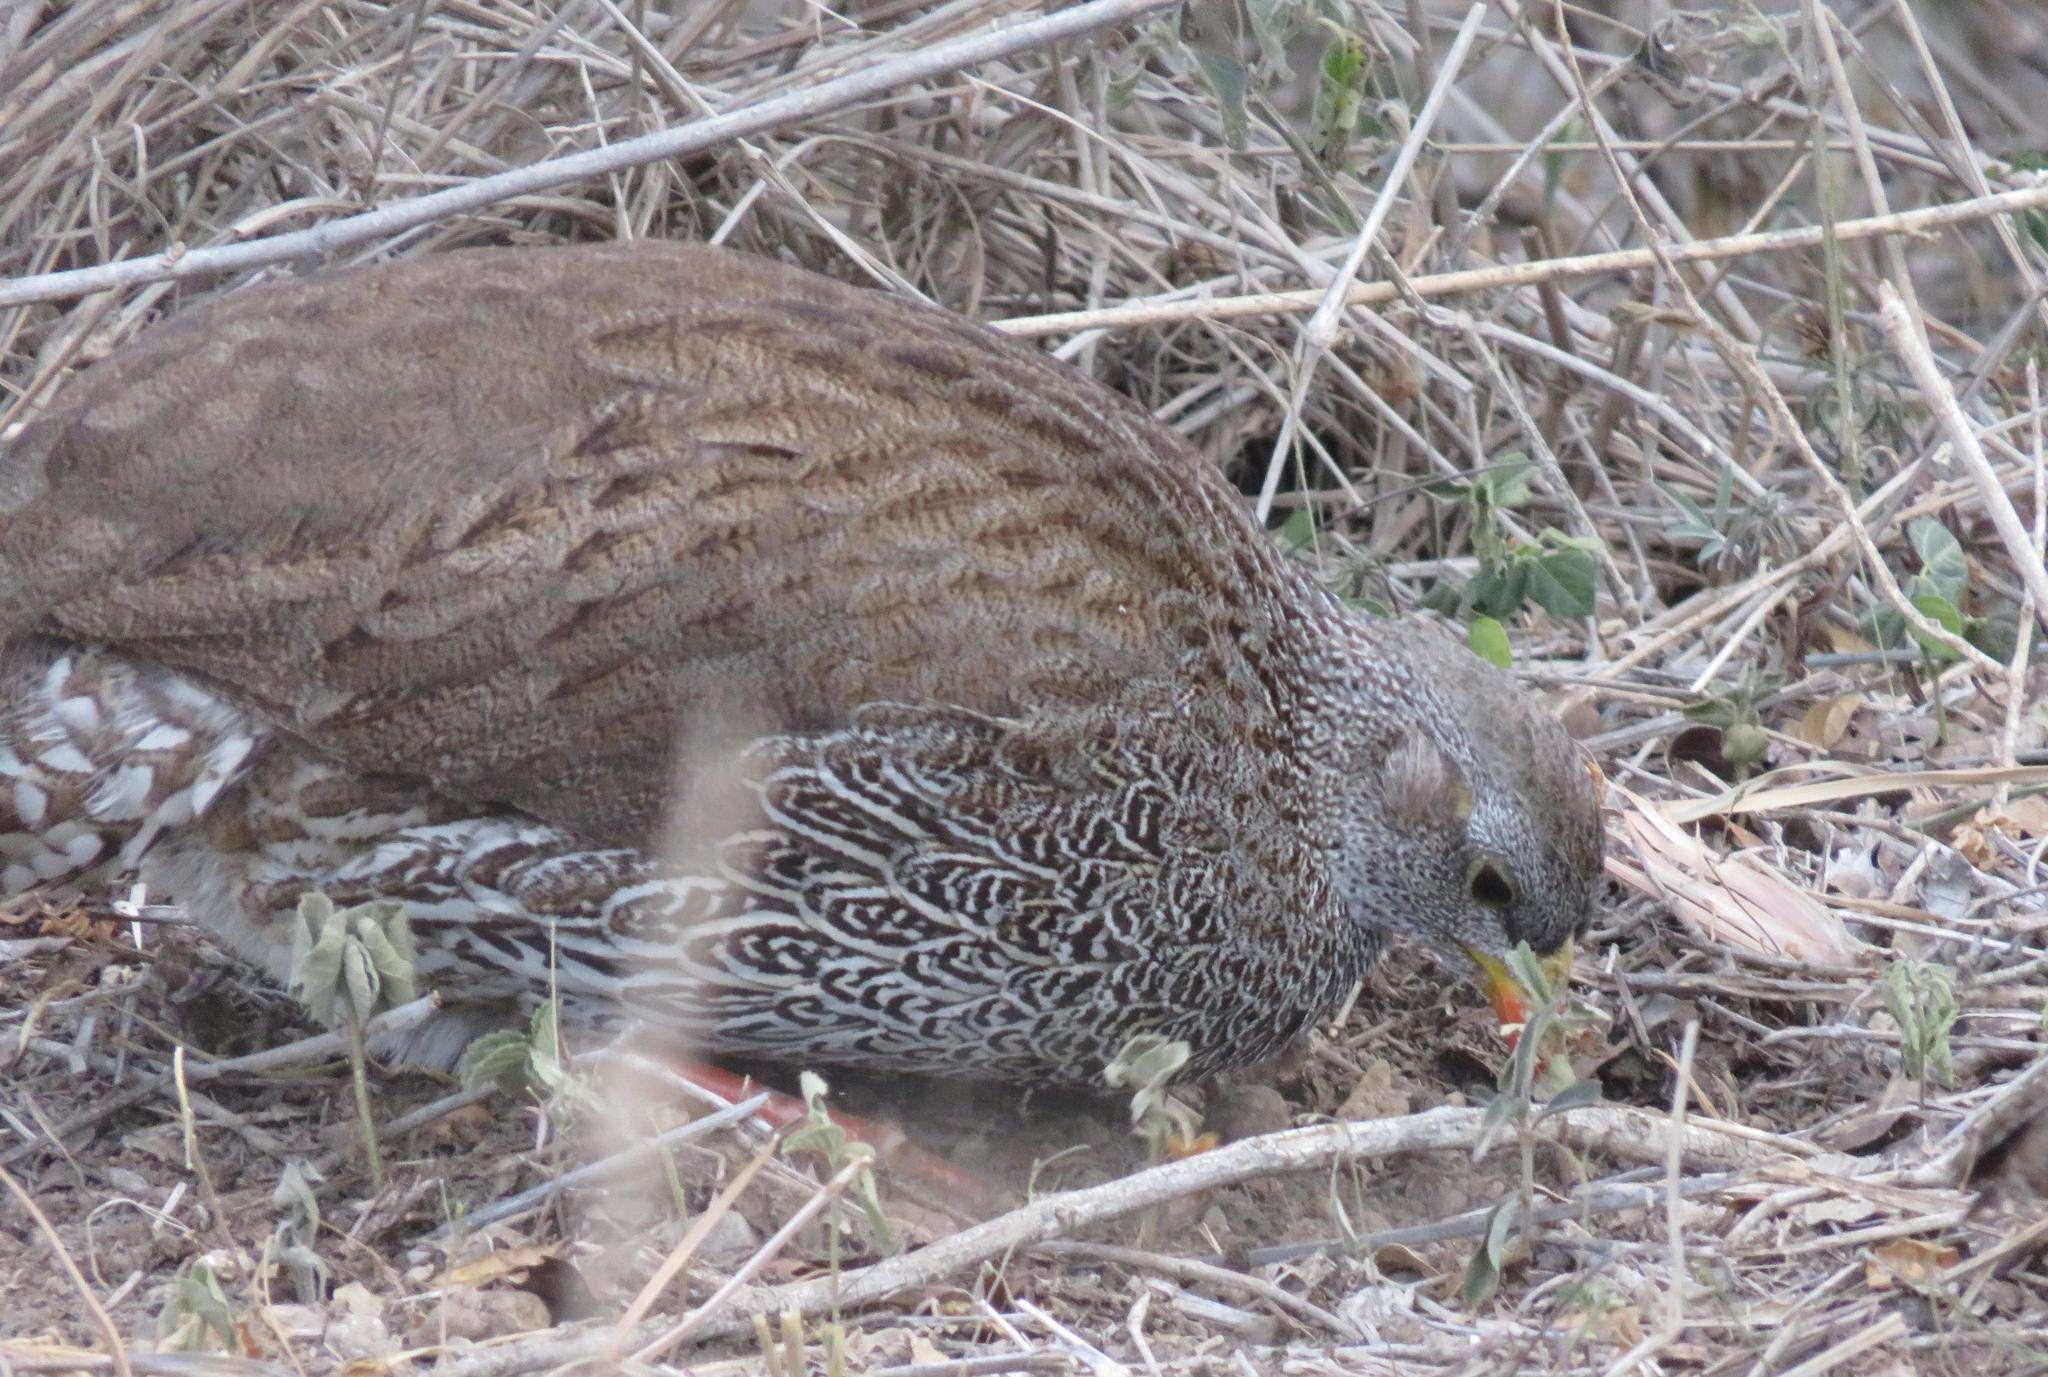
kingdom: Animalia
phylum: Chordata
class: Aves
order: Galliformes
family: Phasianidae
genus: Pternistis
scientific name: Pternistis natalensis
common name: Natal spurfowl
